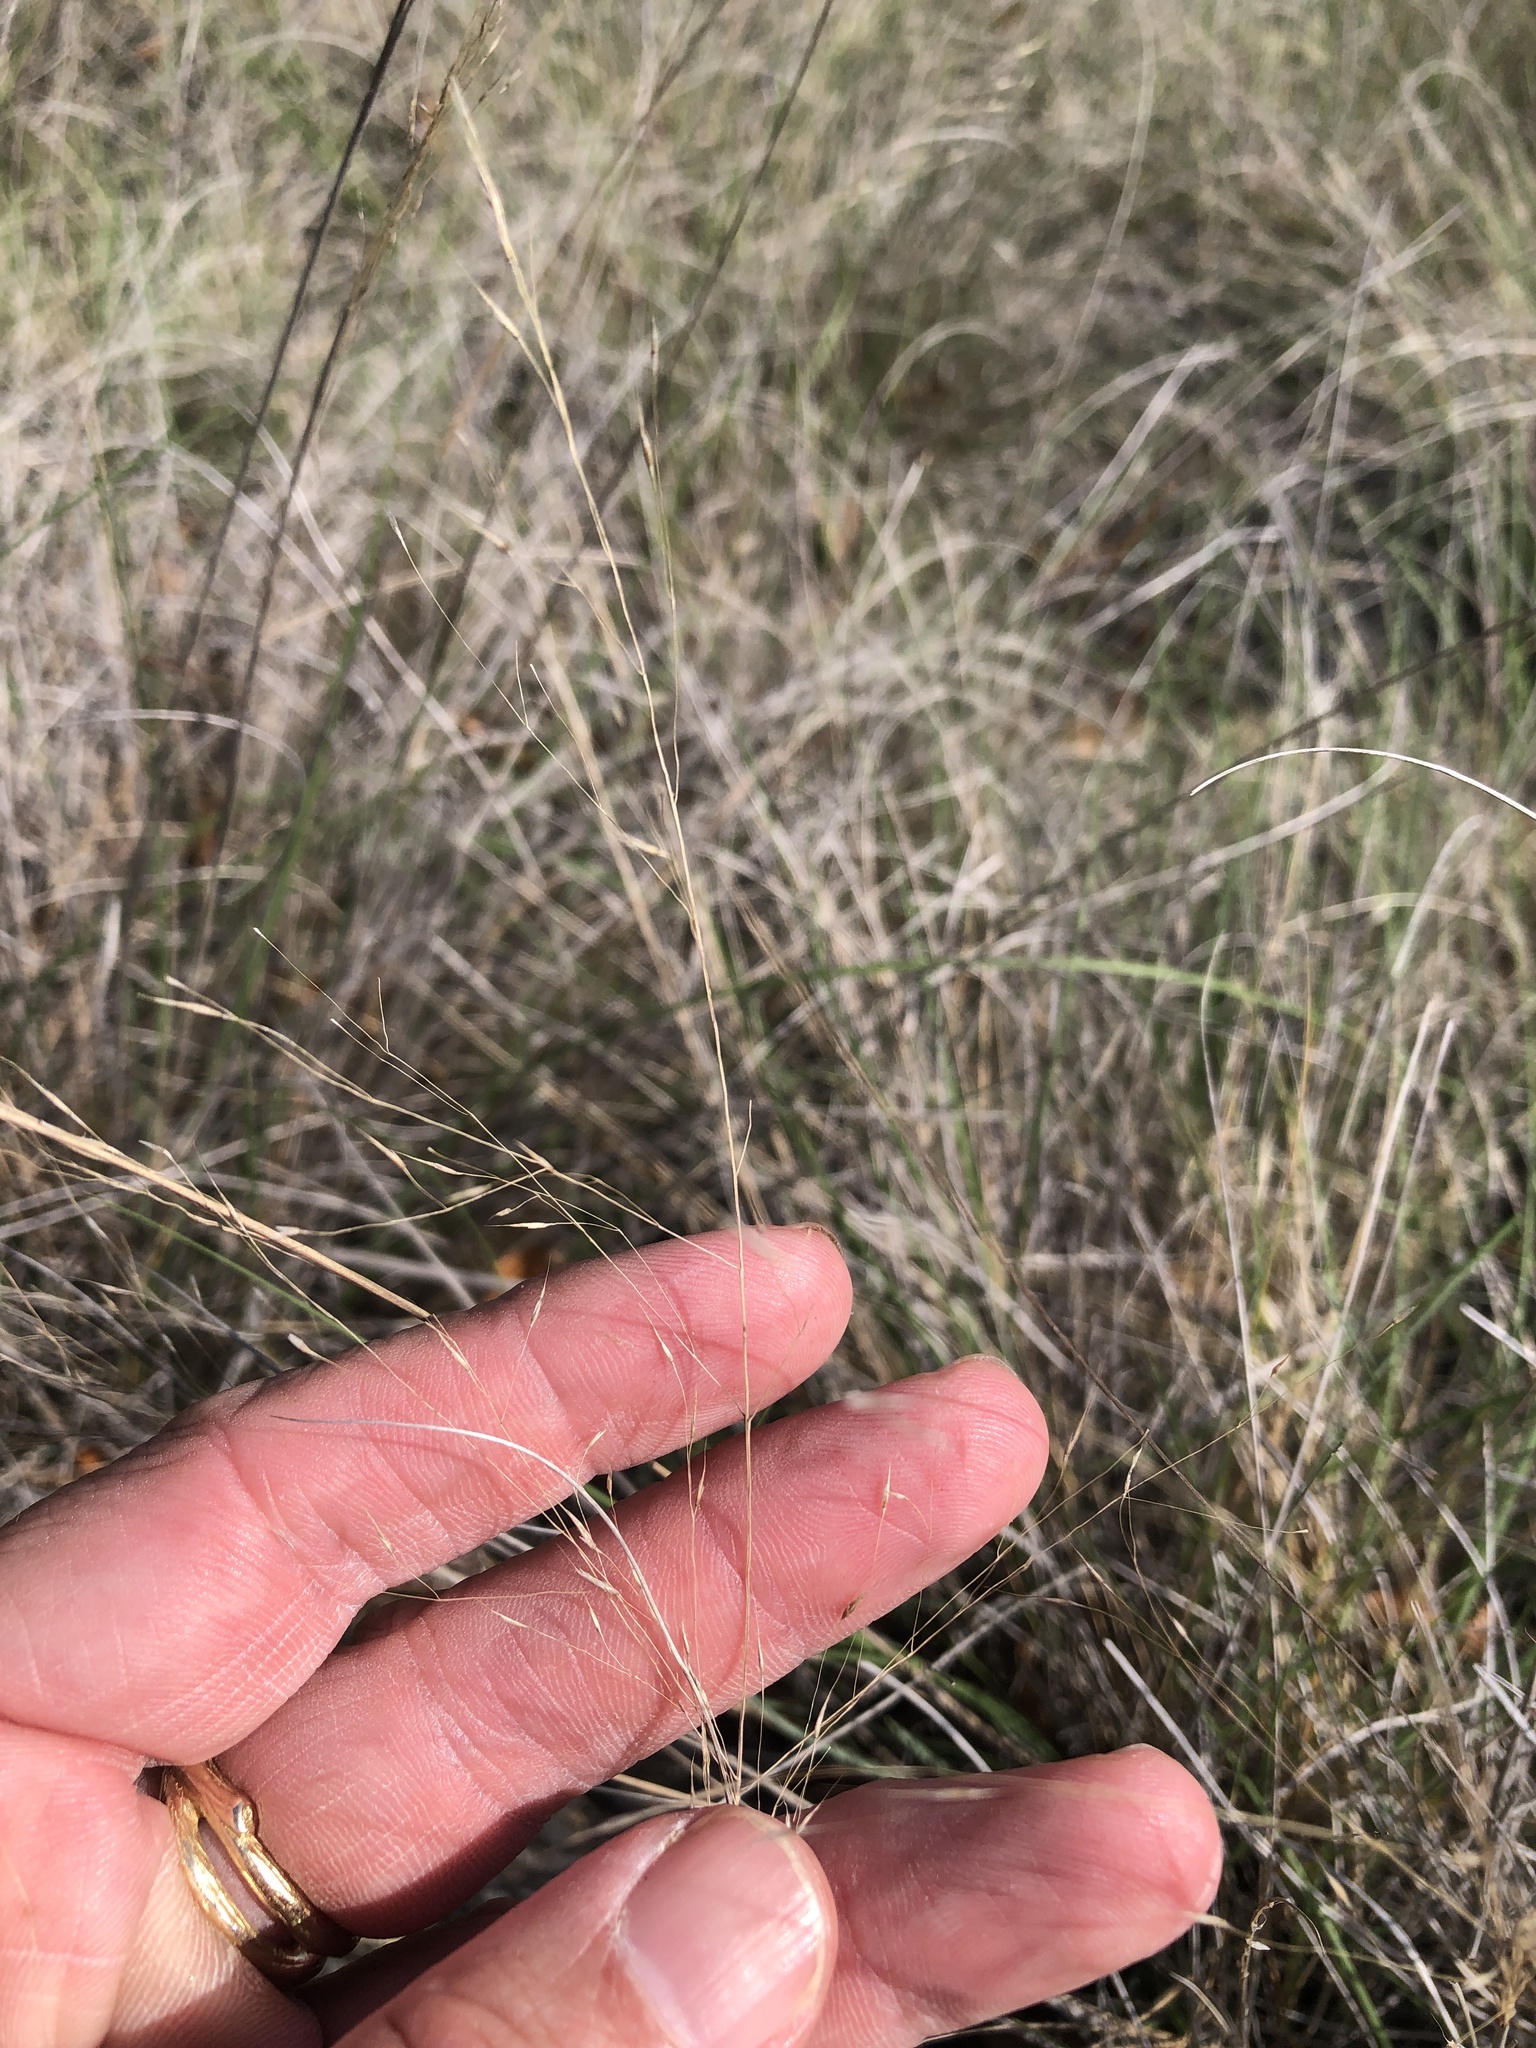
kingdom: Plantae
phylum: Tracheophyta
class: Liliopsida
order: Poales
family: Poaceae
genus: Muhlenbergia
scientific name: Muhlenbergia reverchonii
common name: Seep muhly
